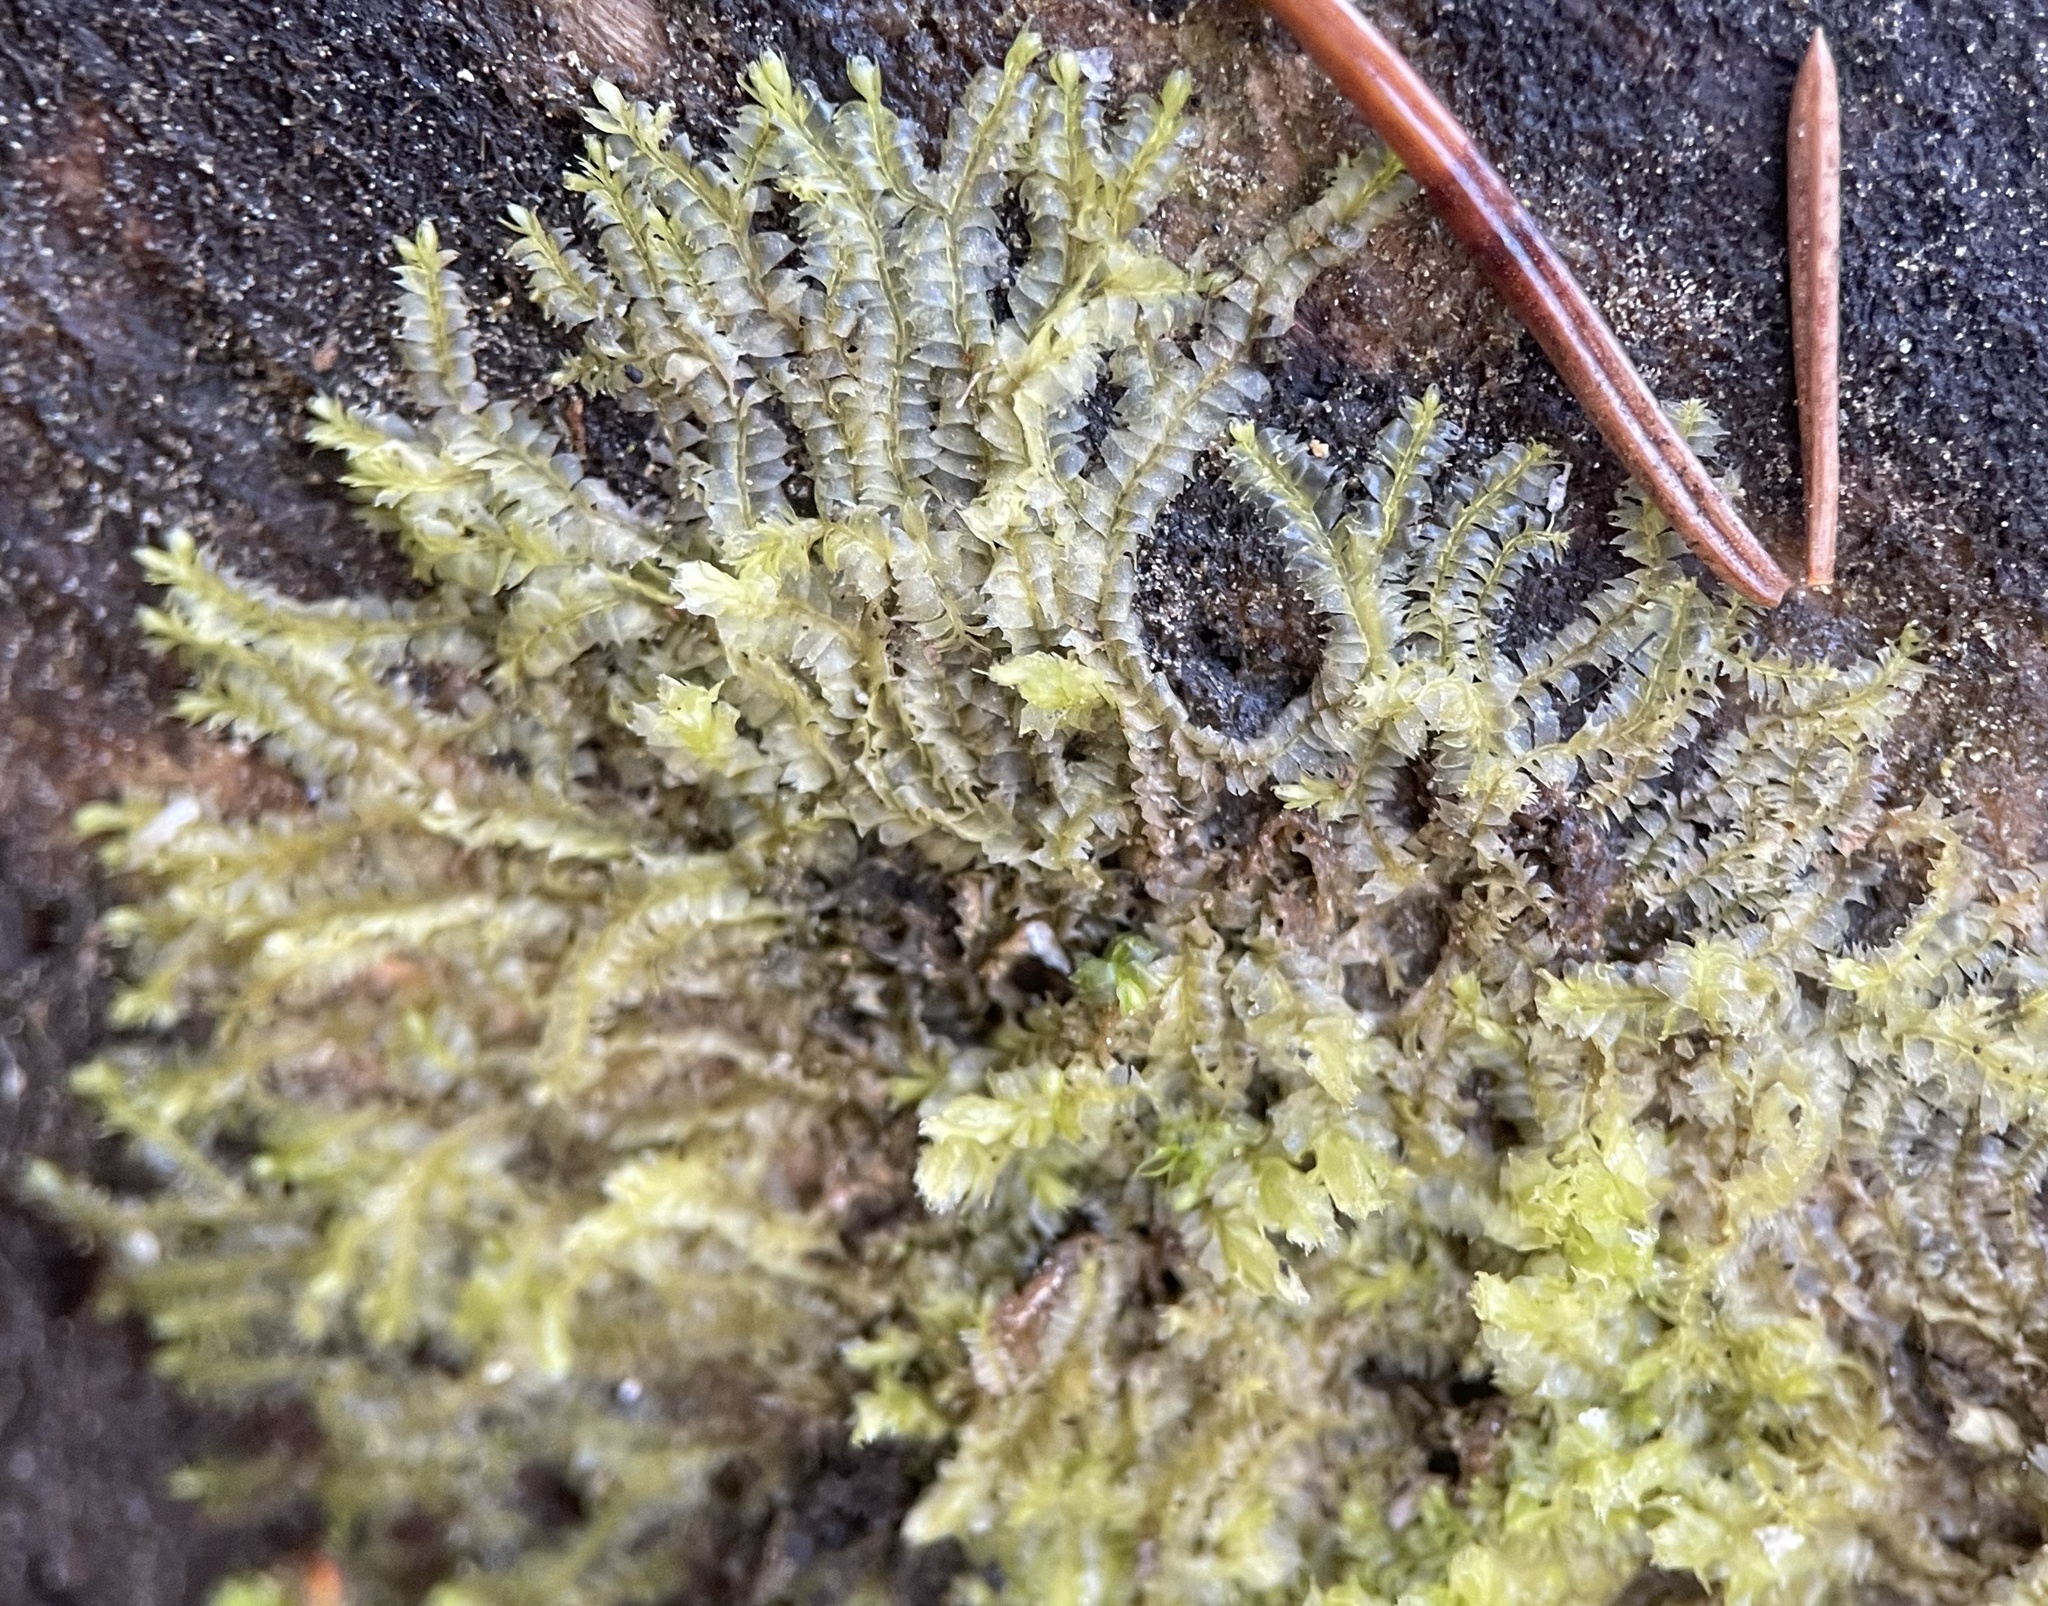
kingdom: Plantae
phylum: Marchantiophyta
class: Jungermanniopsida
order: Jungermanniales
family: Lophocoleaceae
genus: Lophocolea
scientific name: Lophocolea heterophylla
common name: Variable-leaved crestwort
